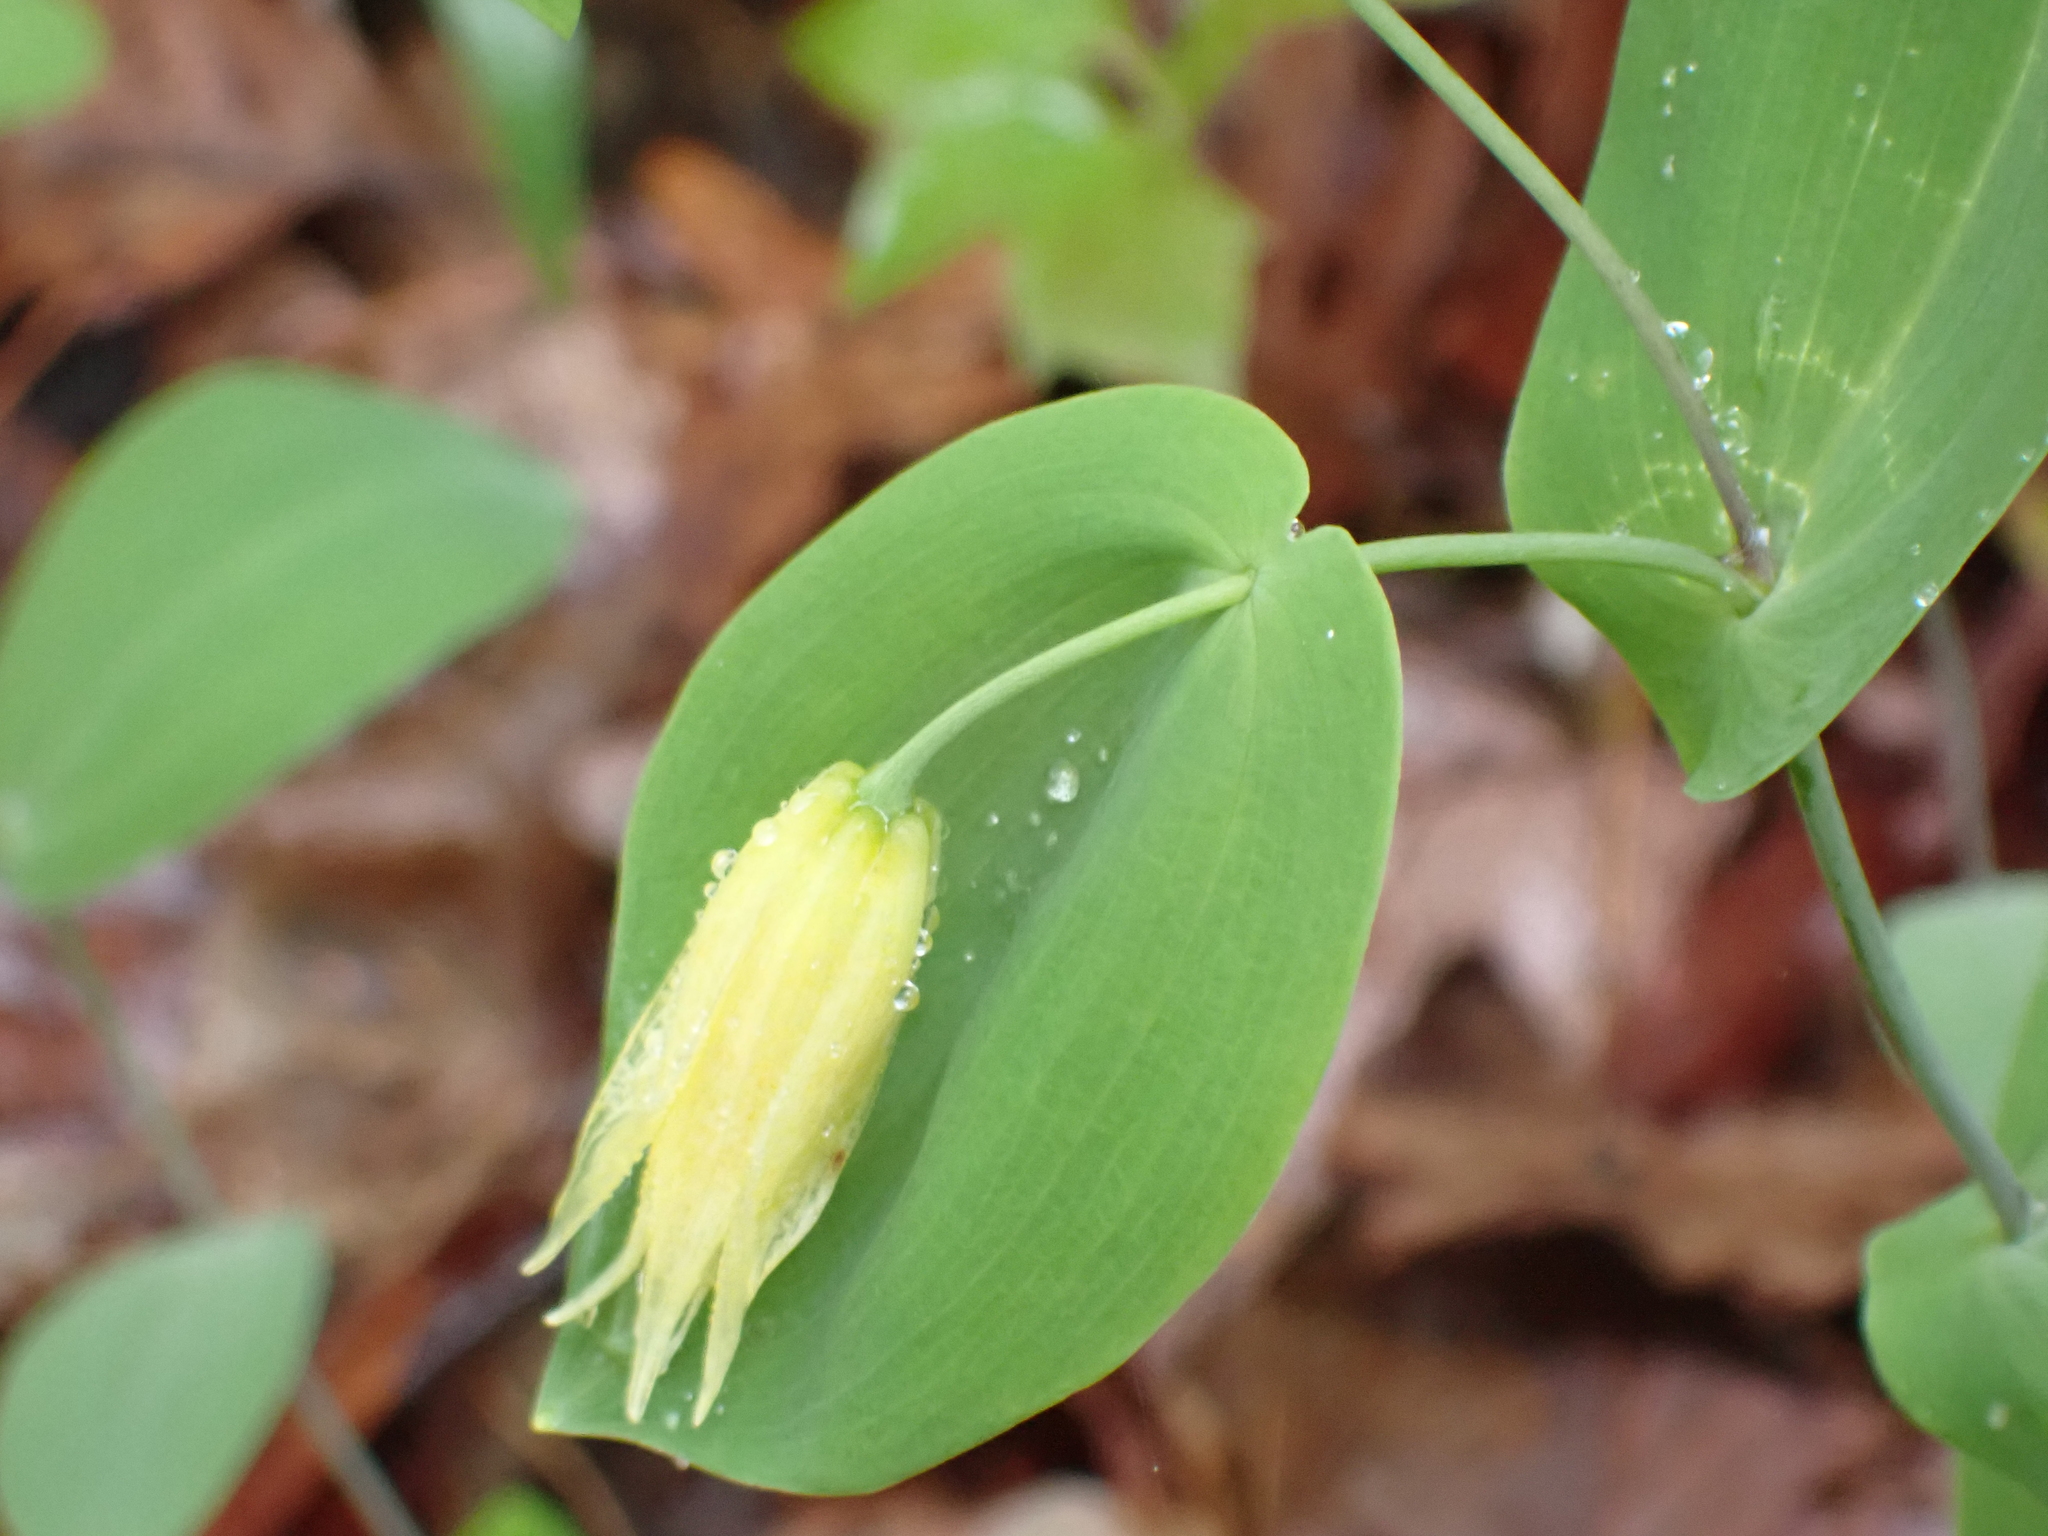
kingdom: Plantae
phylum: Tracheophyta
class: Liliopsida
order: Liliales
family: Colchicaceae
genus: Uvularia
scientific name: Uvularia perfoliata
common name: Perfoliate bellwort
